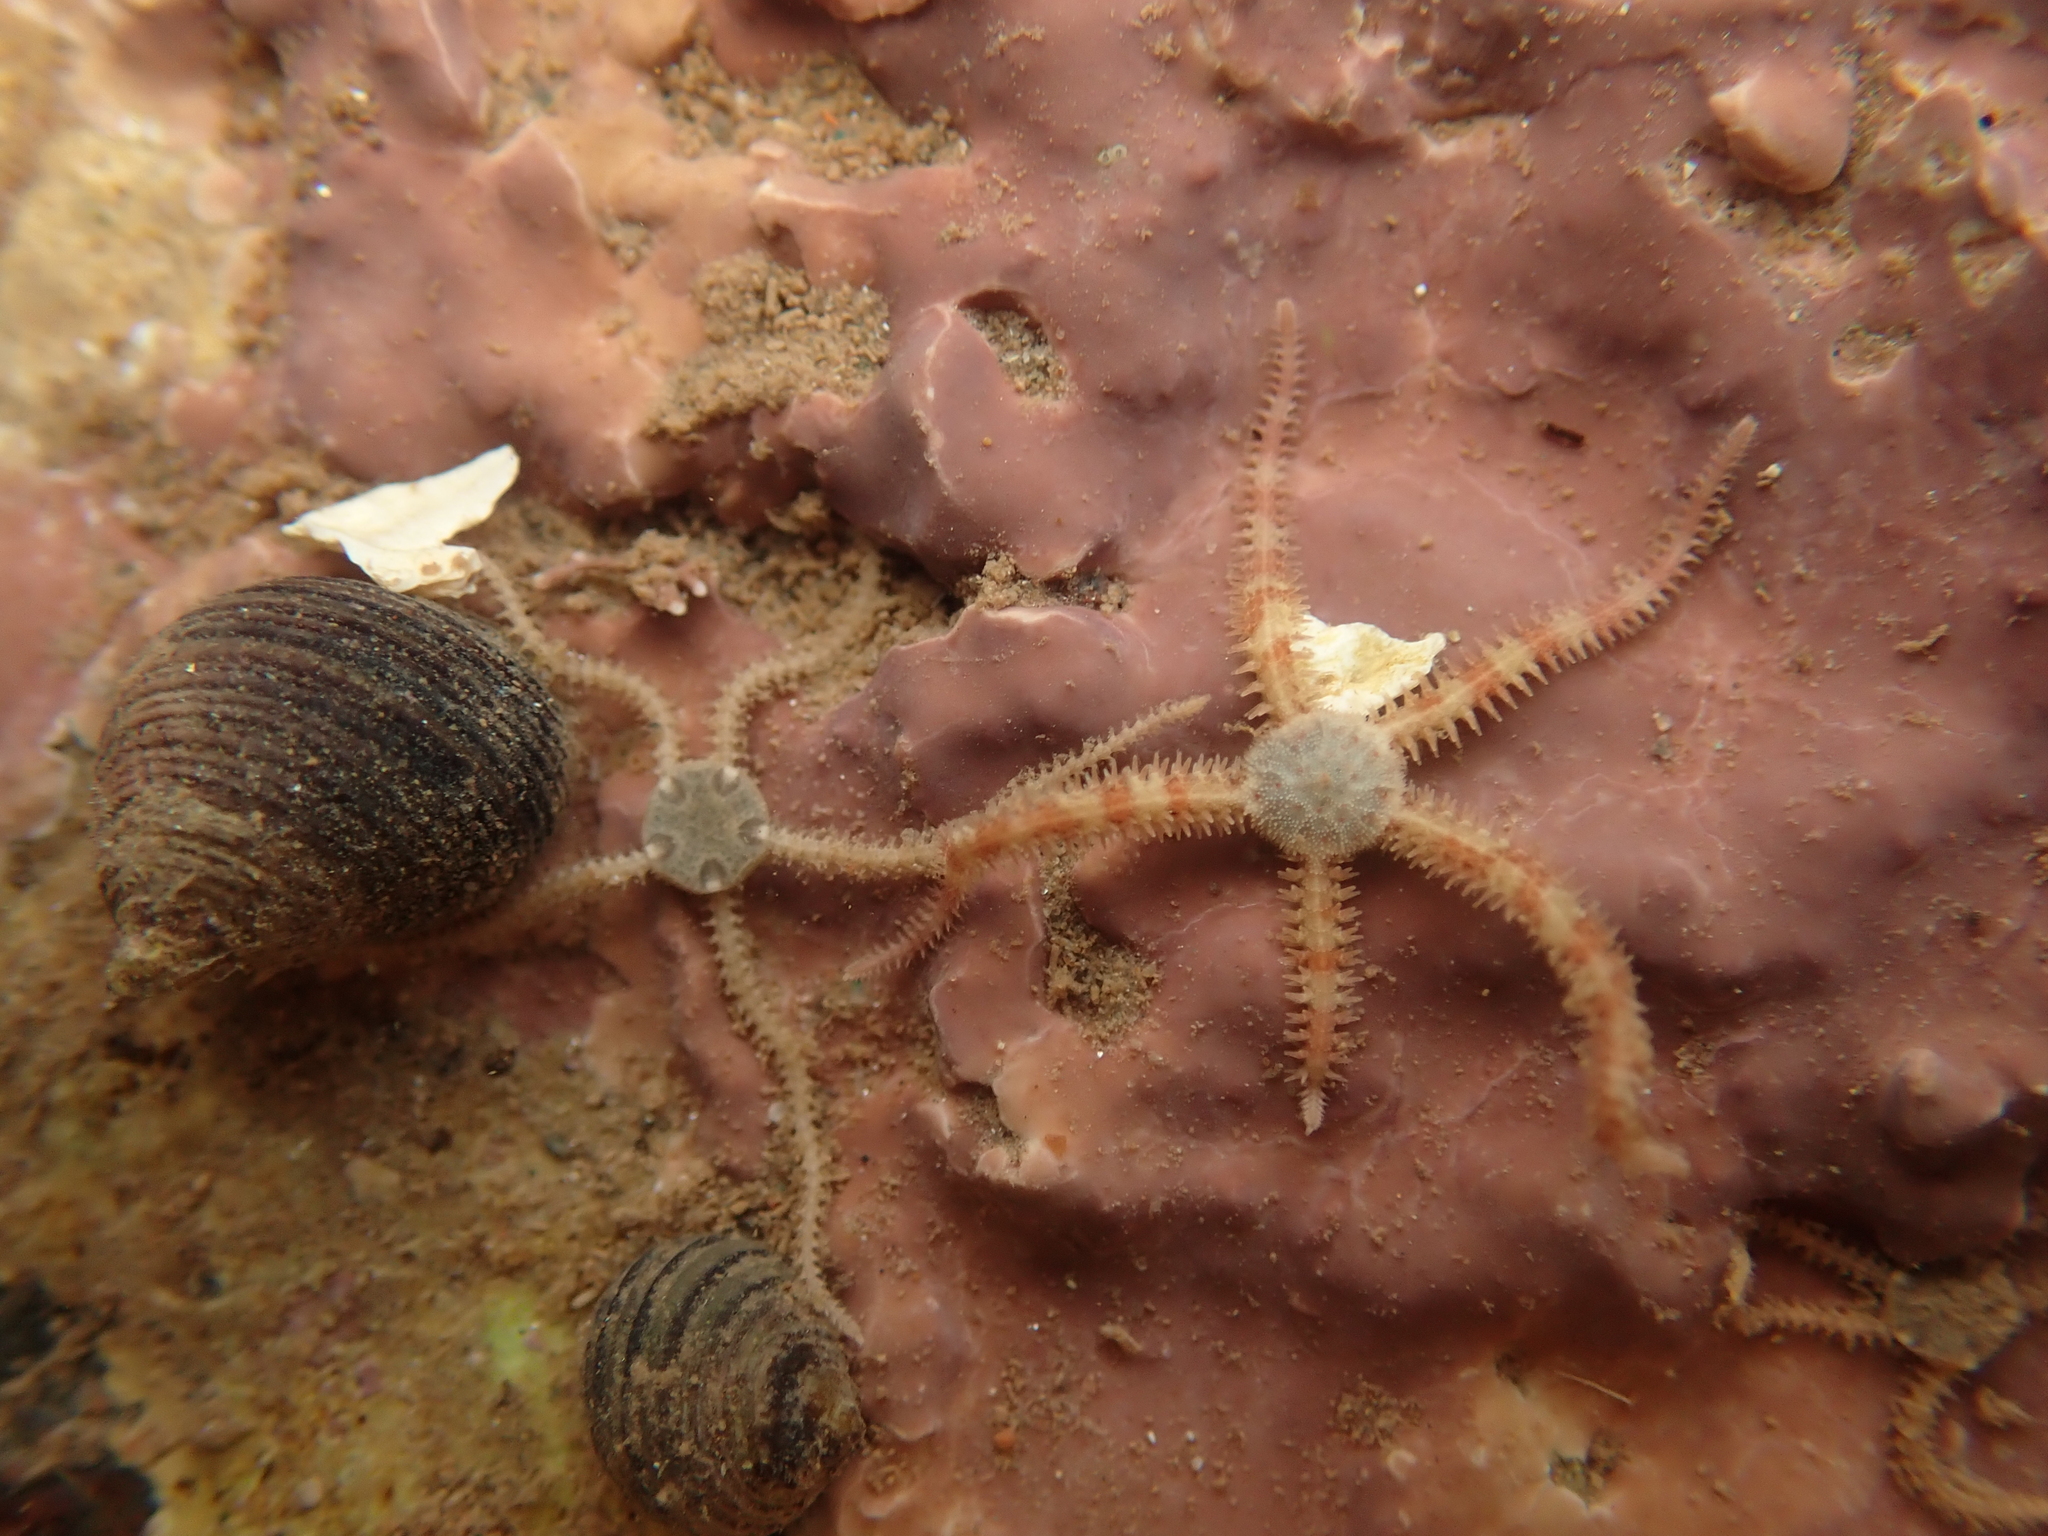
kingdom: Animalia
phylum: Echinodermata
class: Ophiuroidea
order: Amphilepidida
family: Ophiopholidae
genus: Ophiopholis
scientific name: Ophiopholis aculeata
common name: Crevice brittlestar
